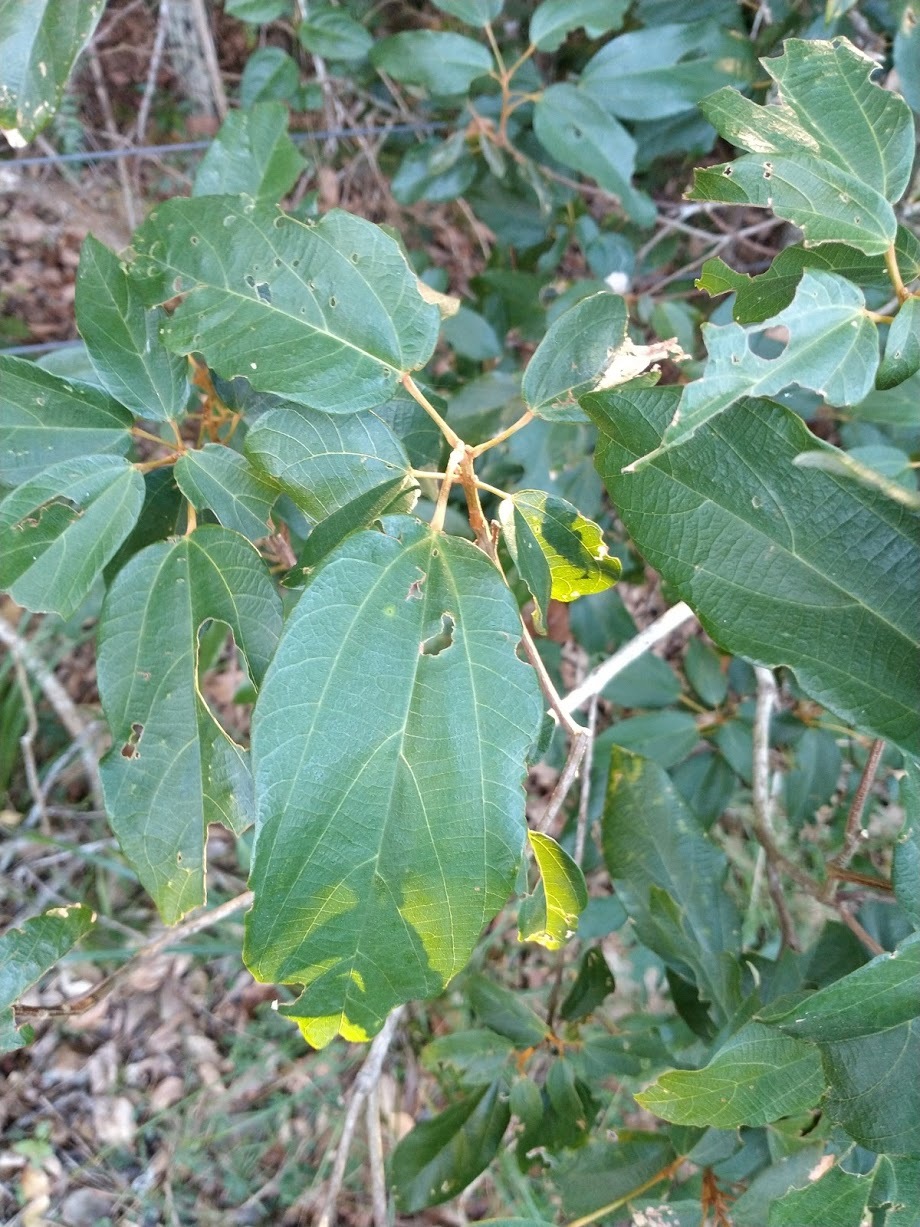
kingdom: Plantae
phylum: Tracheophyta
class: Magnoliopsida
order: Malpighiales
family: Euphorbiaceae
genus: Mallotus
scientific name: Mallotus philippensis
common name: Kamala tree
